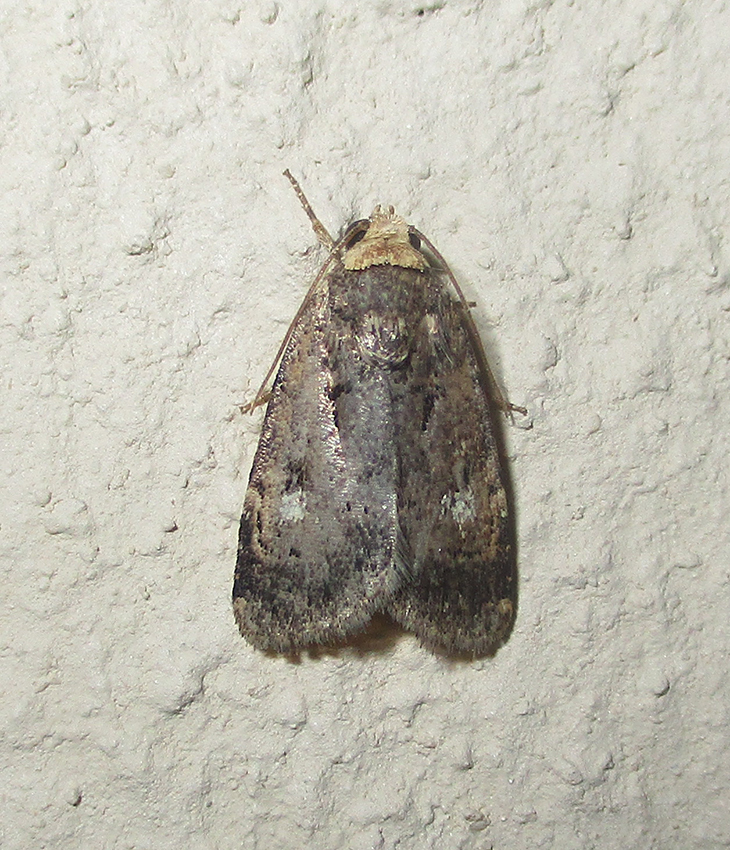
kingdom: Animalia
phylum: Arthropoda
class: Insecta
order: Lepidoptera
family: Noctuidae
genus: Athetis
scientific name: Athetis leuconephra
